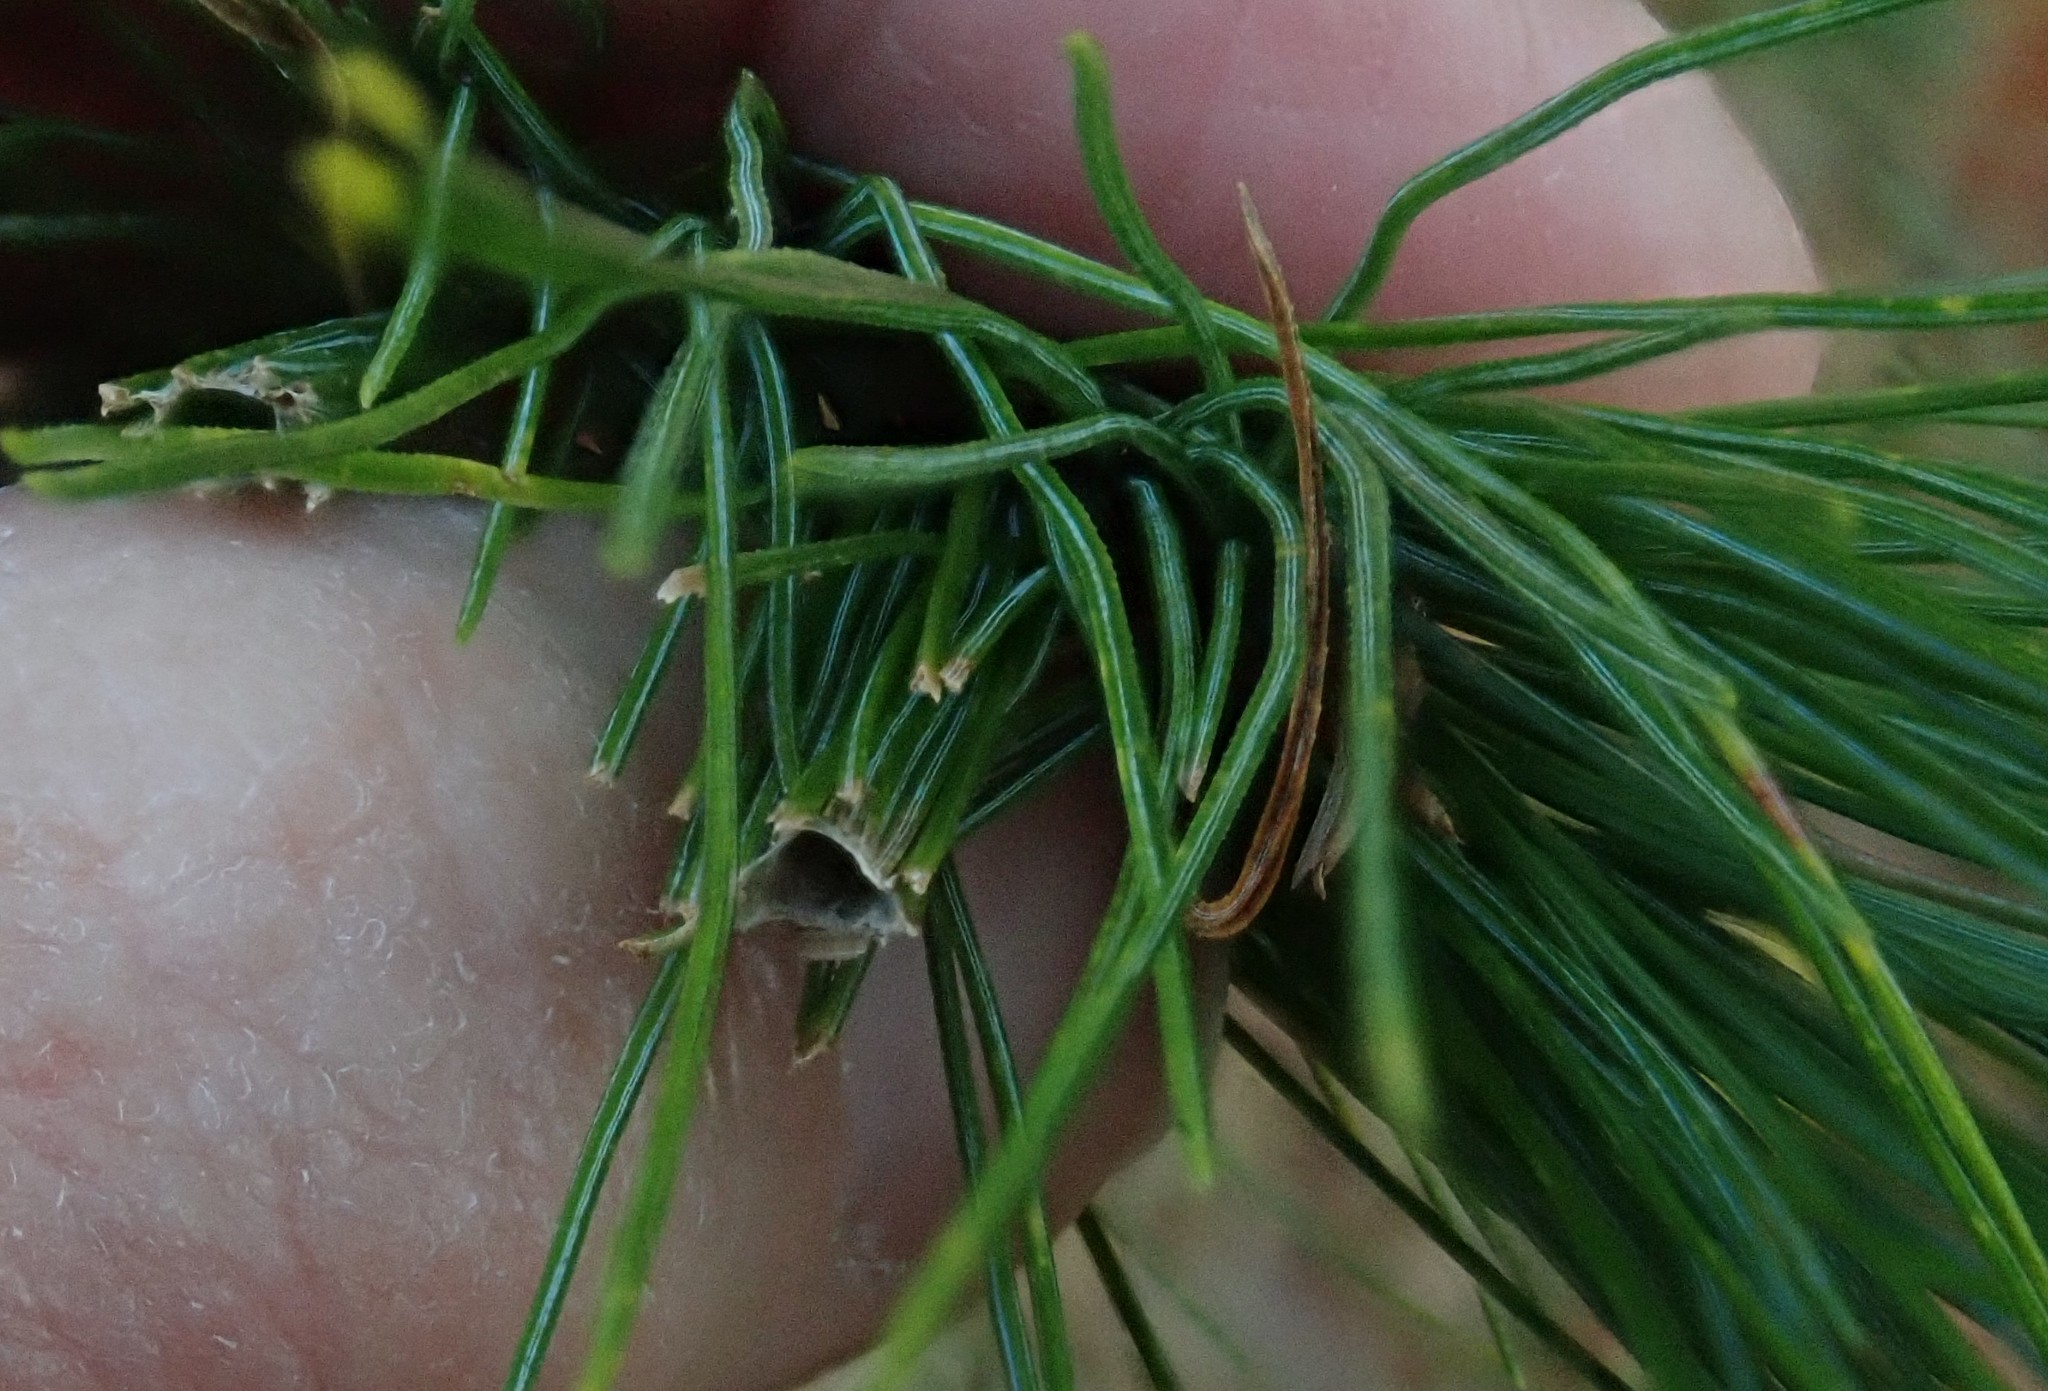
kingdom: Animalia
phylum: Arthropoda
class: Insecta
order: Lepidoptera
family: Tortricidae
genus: Argyrotaenia
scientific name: Argyrotaenia pinatubana
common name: Pine tube moth
